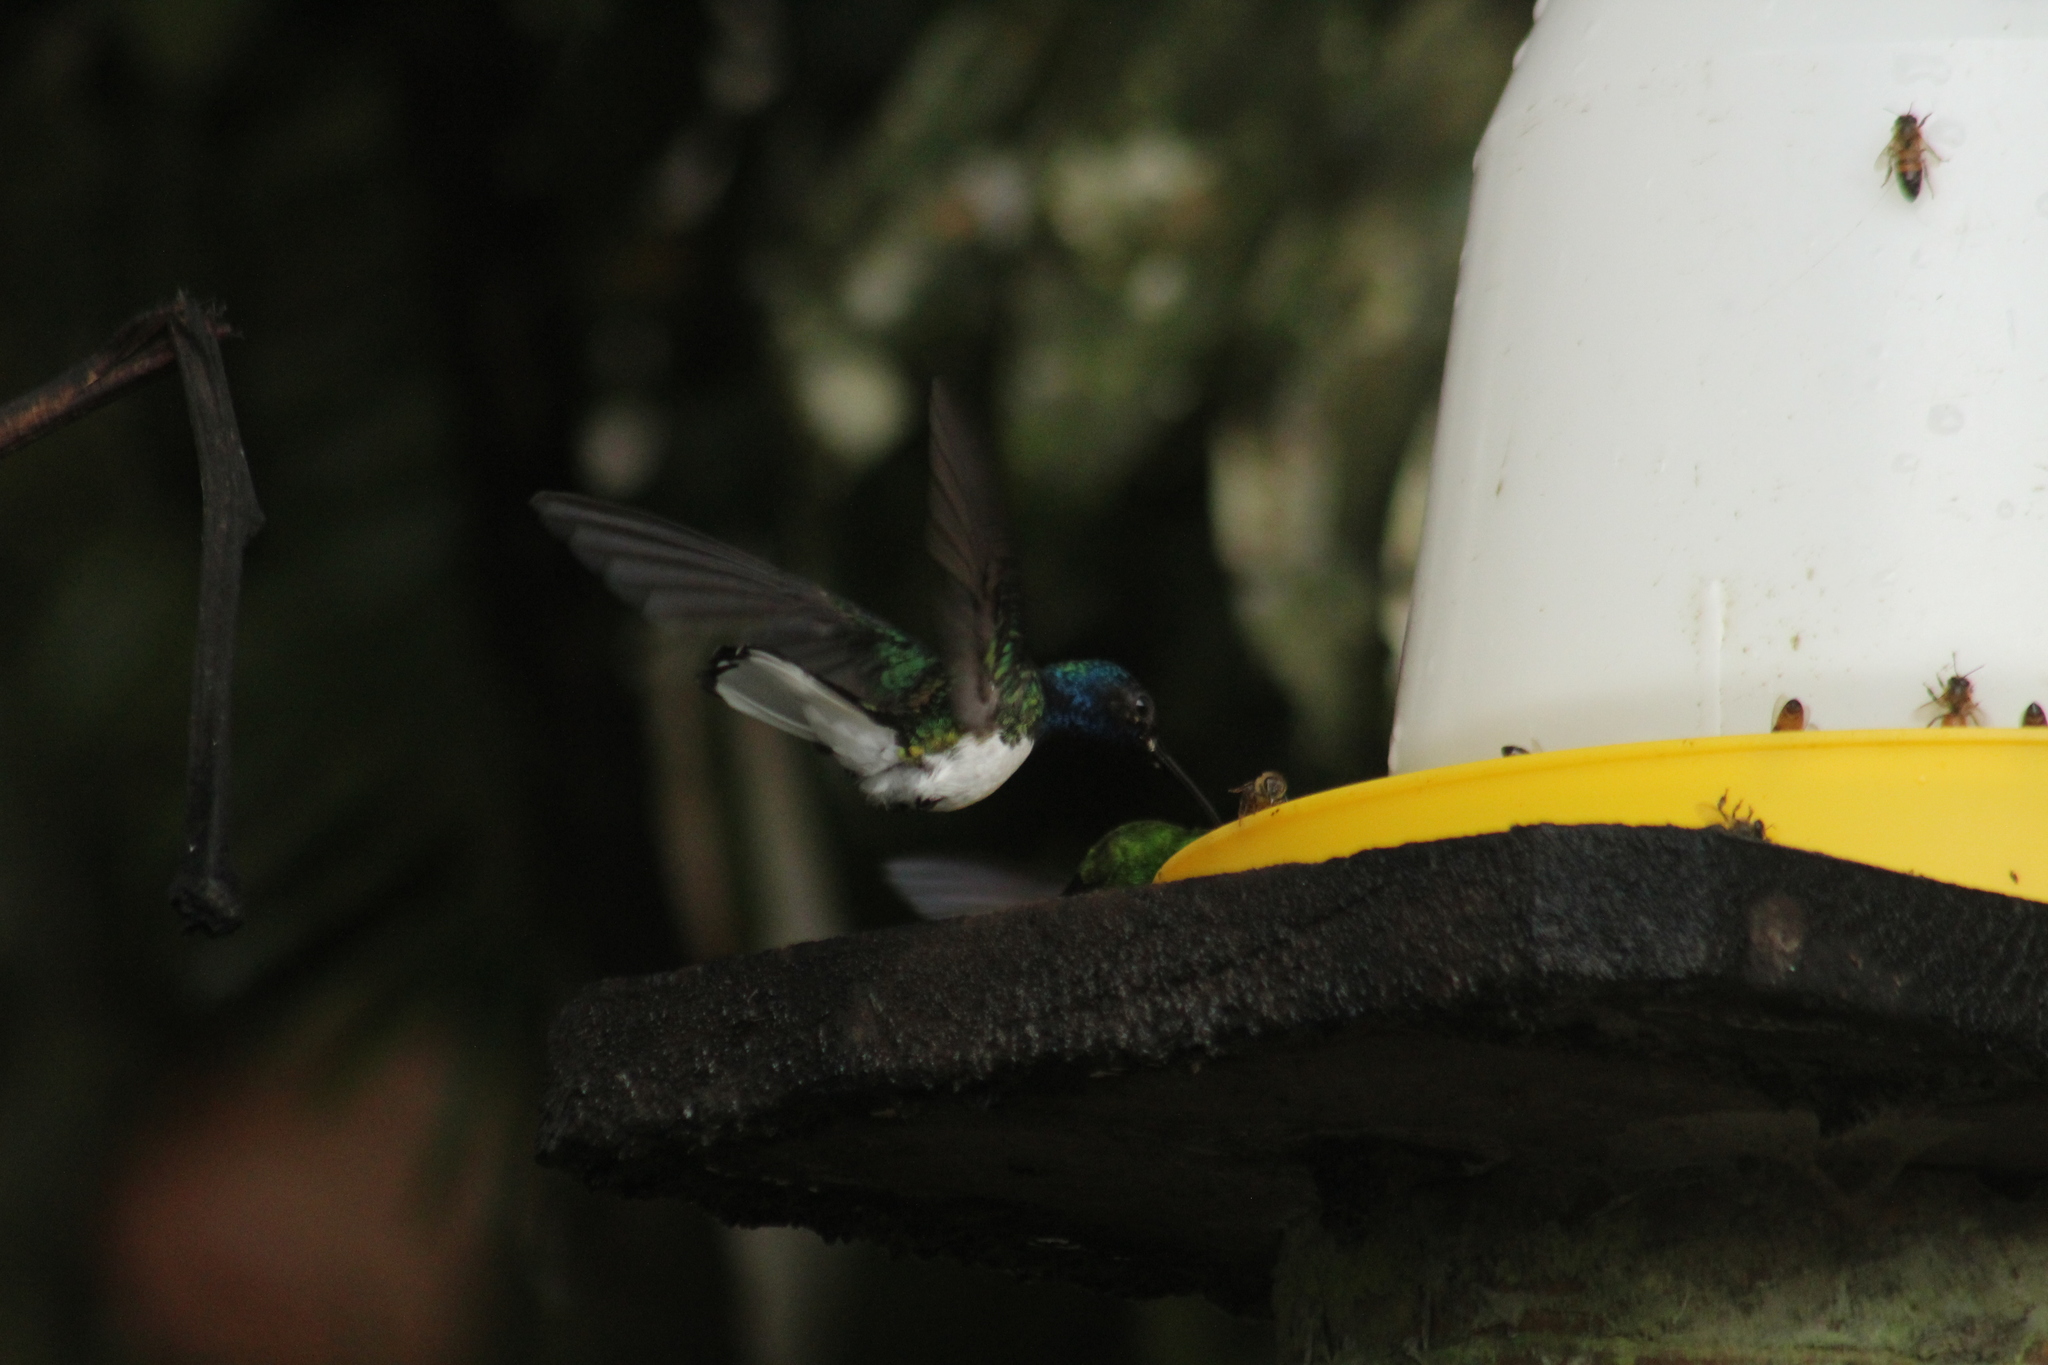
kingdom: Animalia
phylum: Chordata
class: Aves
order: Apodiformes
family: Trochilidae
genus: Florisuga
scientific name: Florisuga mellivora
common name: White-necked jacobin
